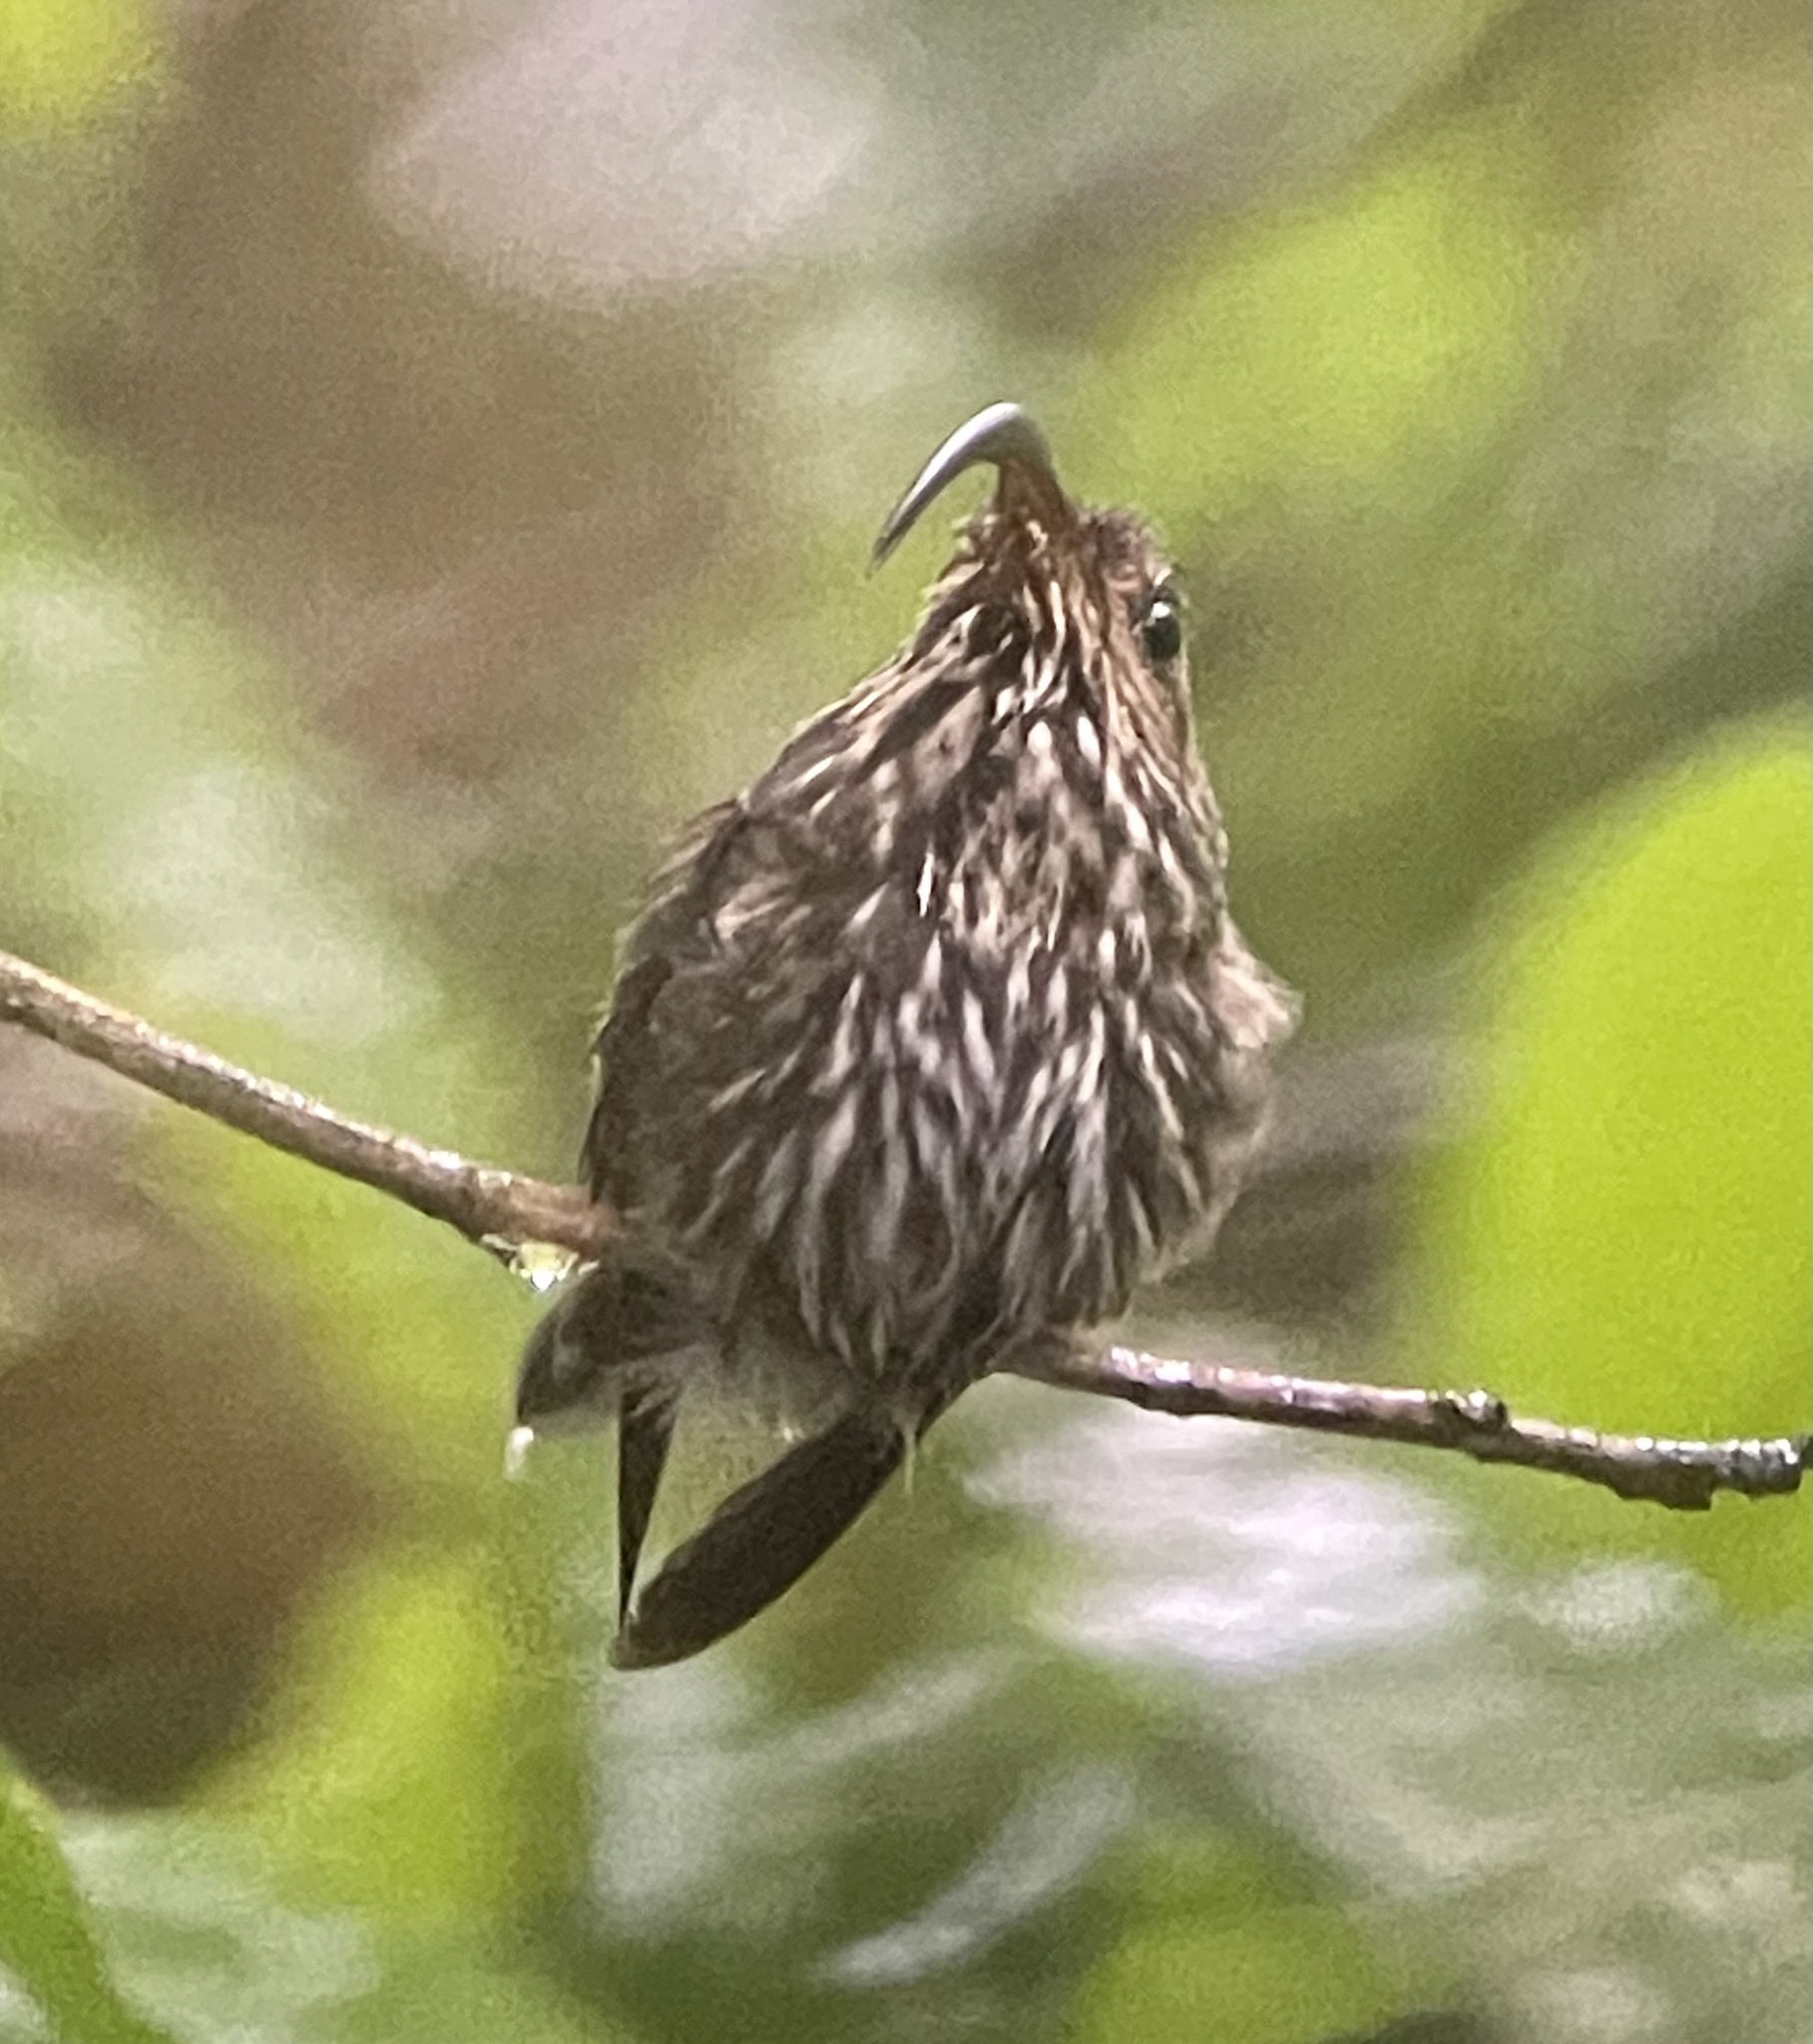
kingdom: Animalia
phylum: Chordata
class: Aves
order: Apodiformes
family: Trochilidae
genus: Eutoxeres
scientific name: Eutoxeres aquila
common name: White-tipped sicklebill
